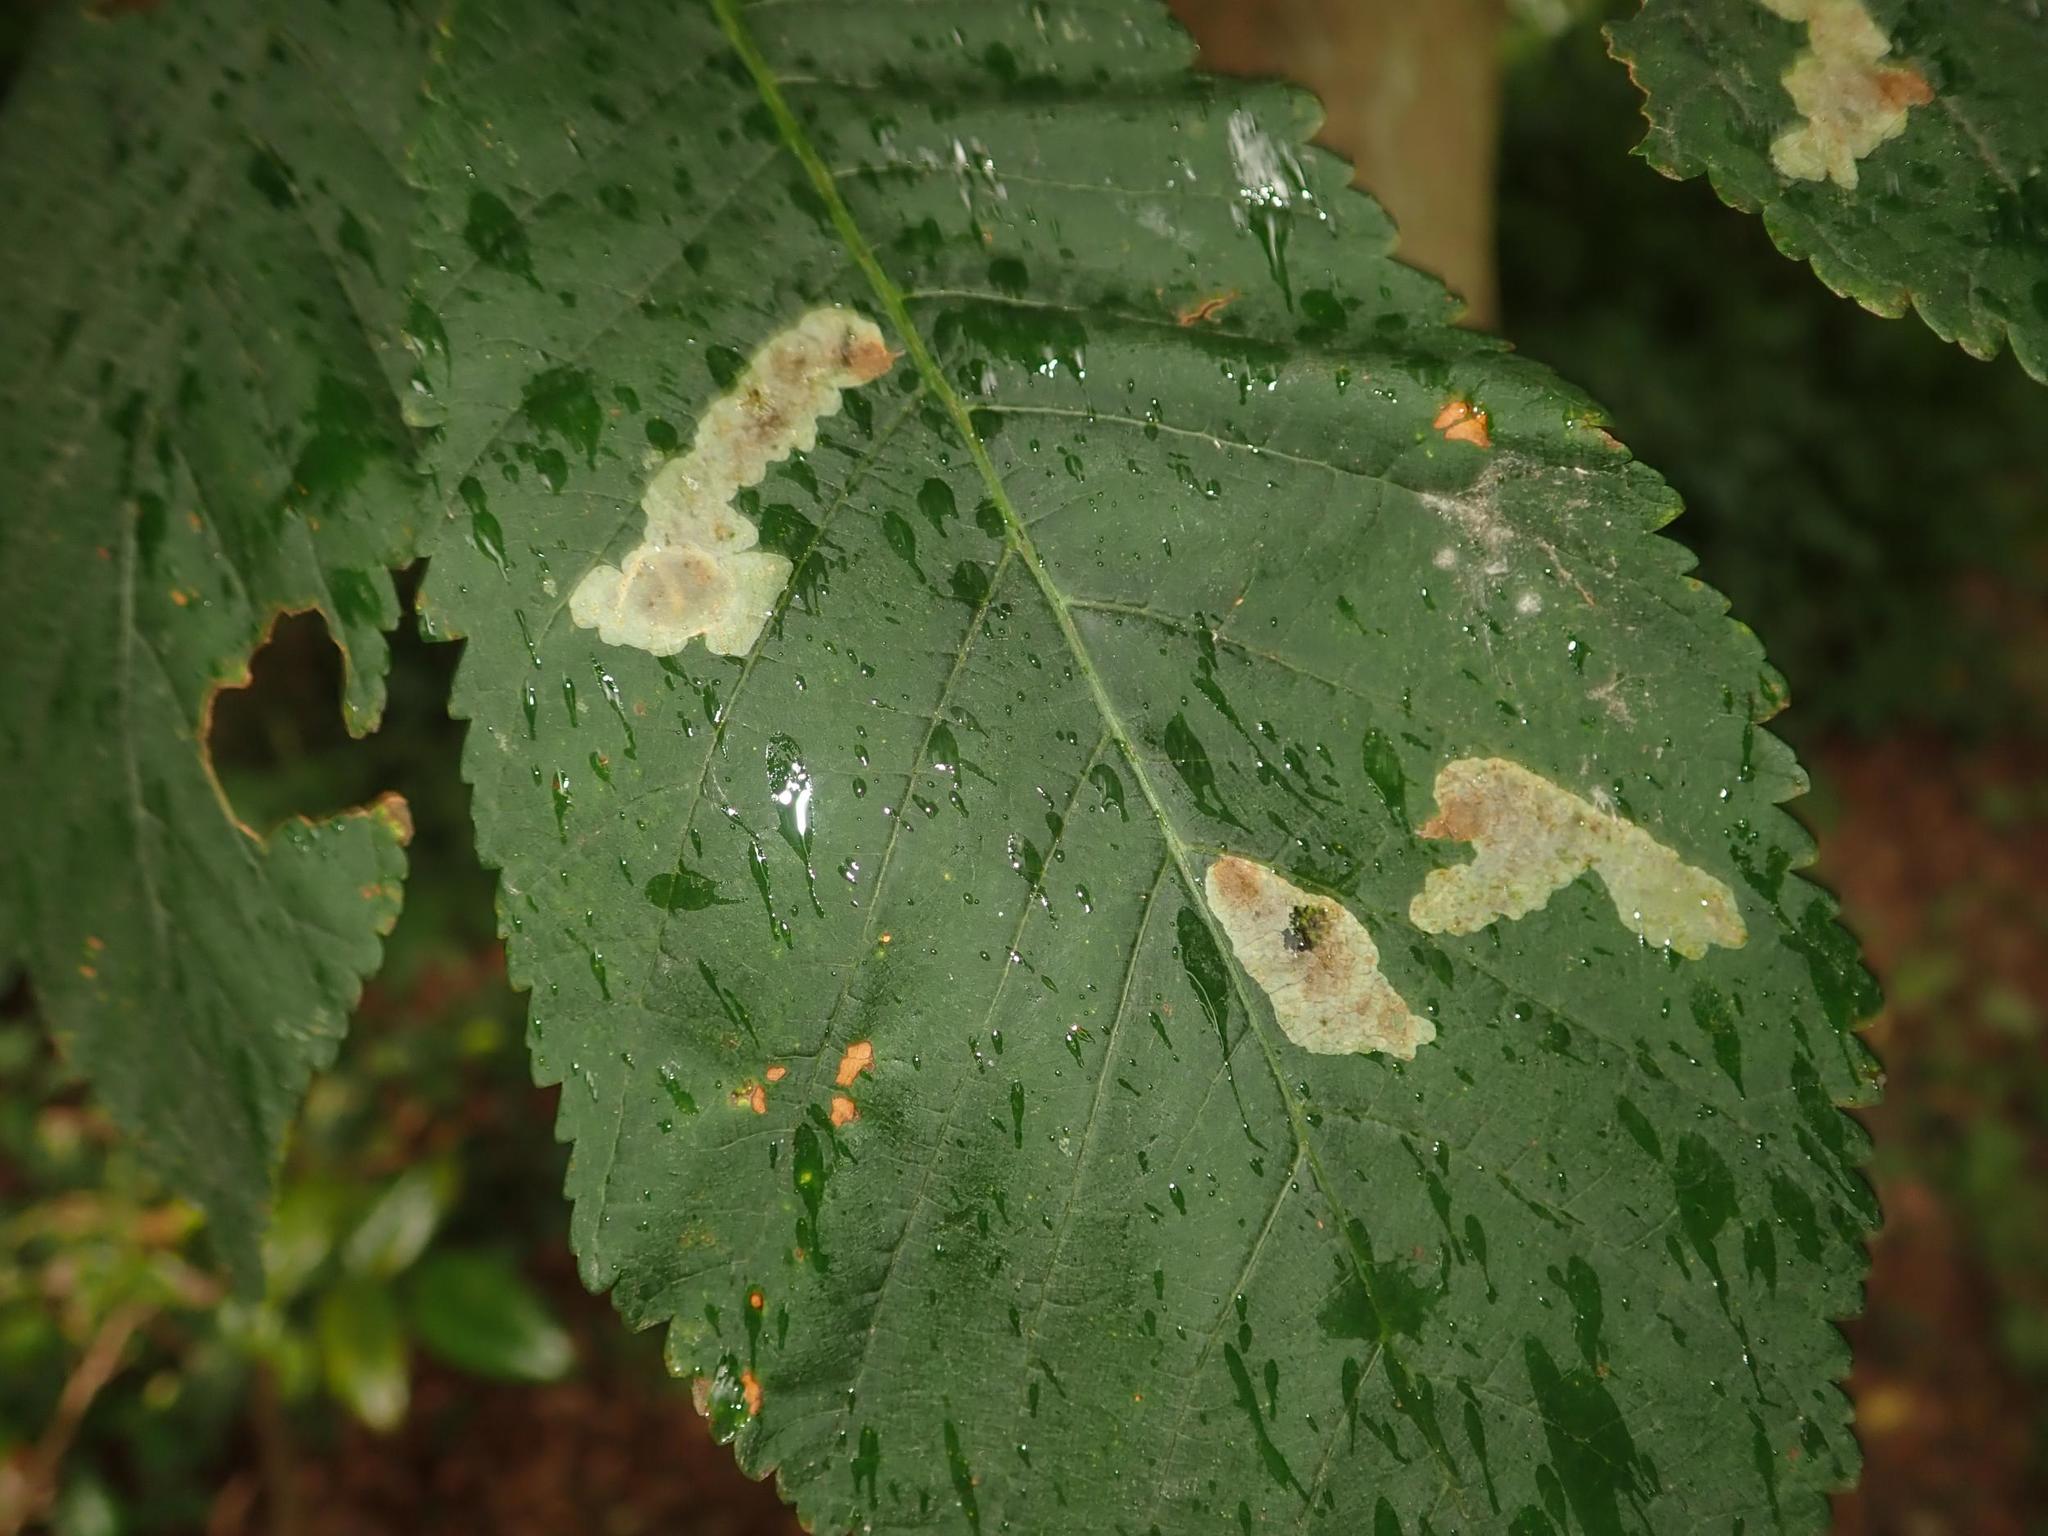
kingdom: Animalia
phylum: Arthropoda
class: Insecta
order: Lepidoptera
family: Gracillariidae
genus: Cameraria
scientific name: Cameraria ohridella
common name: Horse-chestnut leaf-miner
